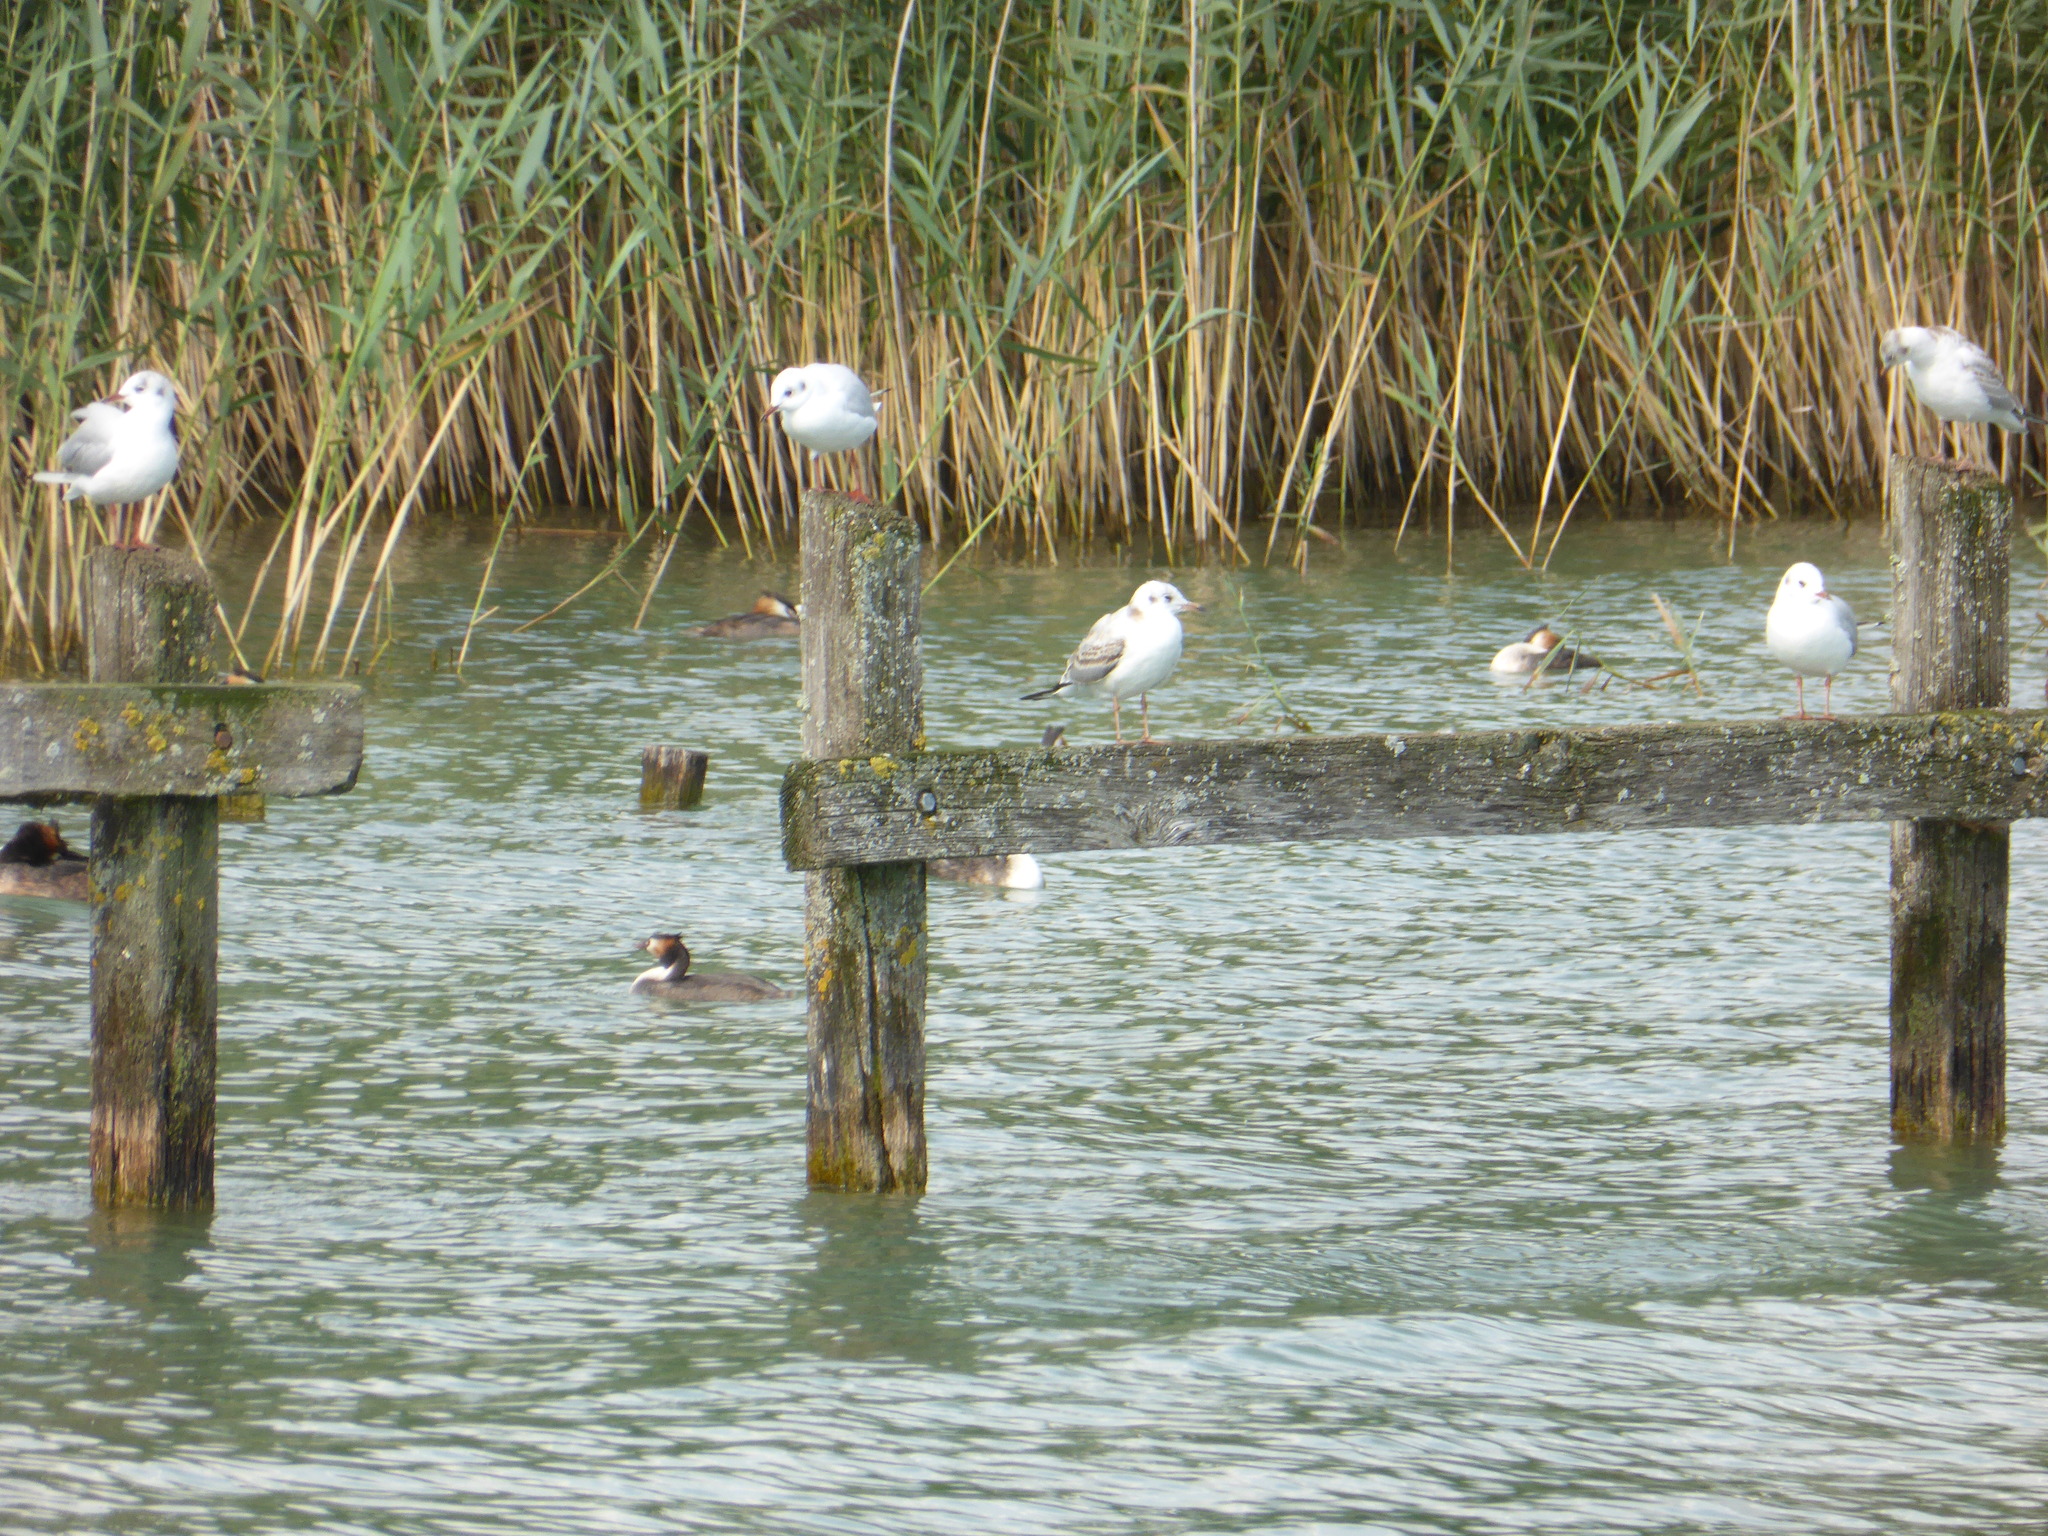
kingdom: Animalia
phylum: Chordata
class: Aves
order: Charadriiformes
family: Laridae
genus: Chroicocephalus
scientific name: Chroicocephalus ridibundus
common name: Black-headed gull
